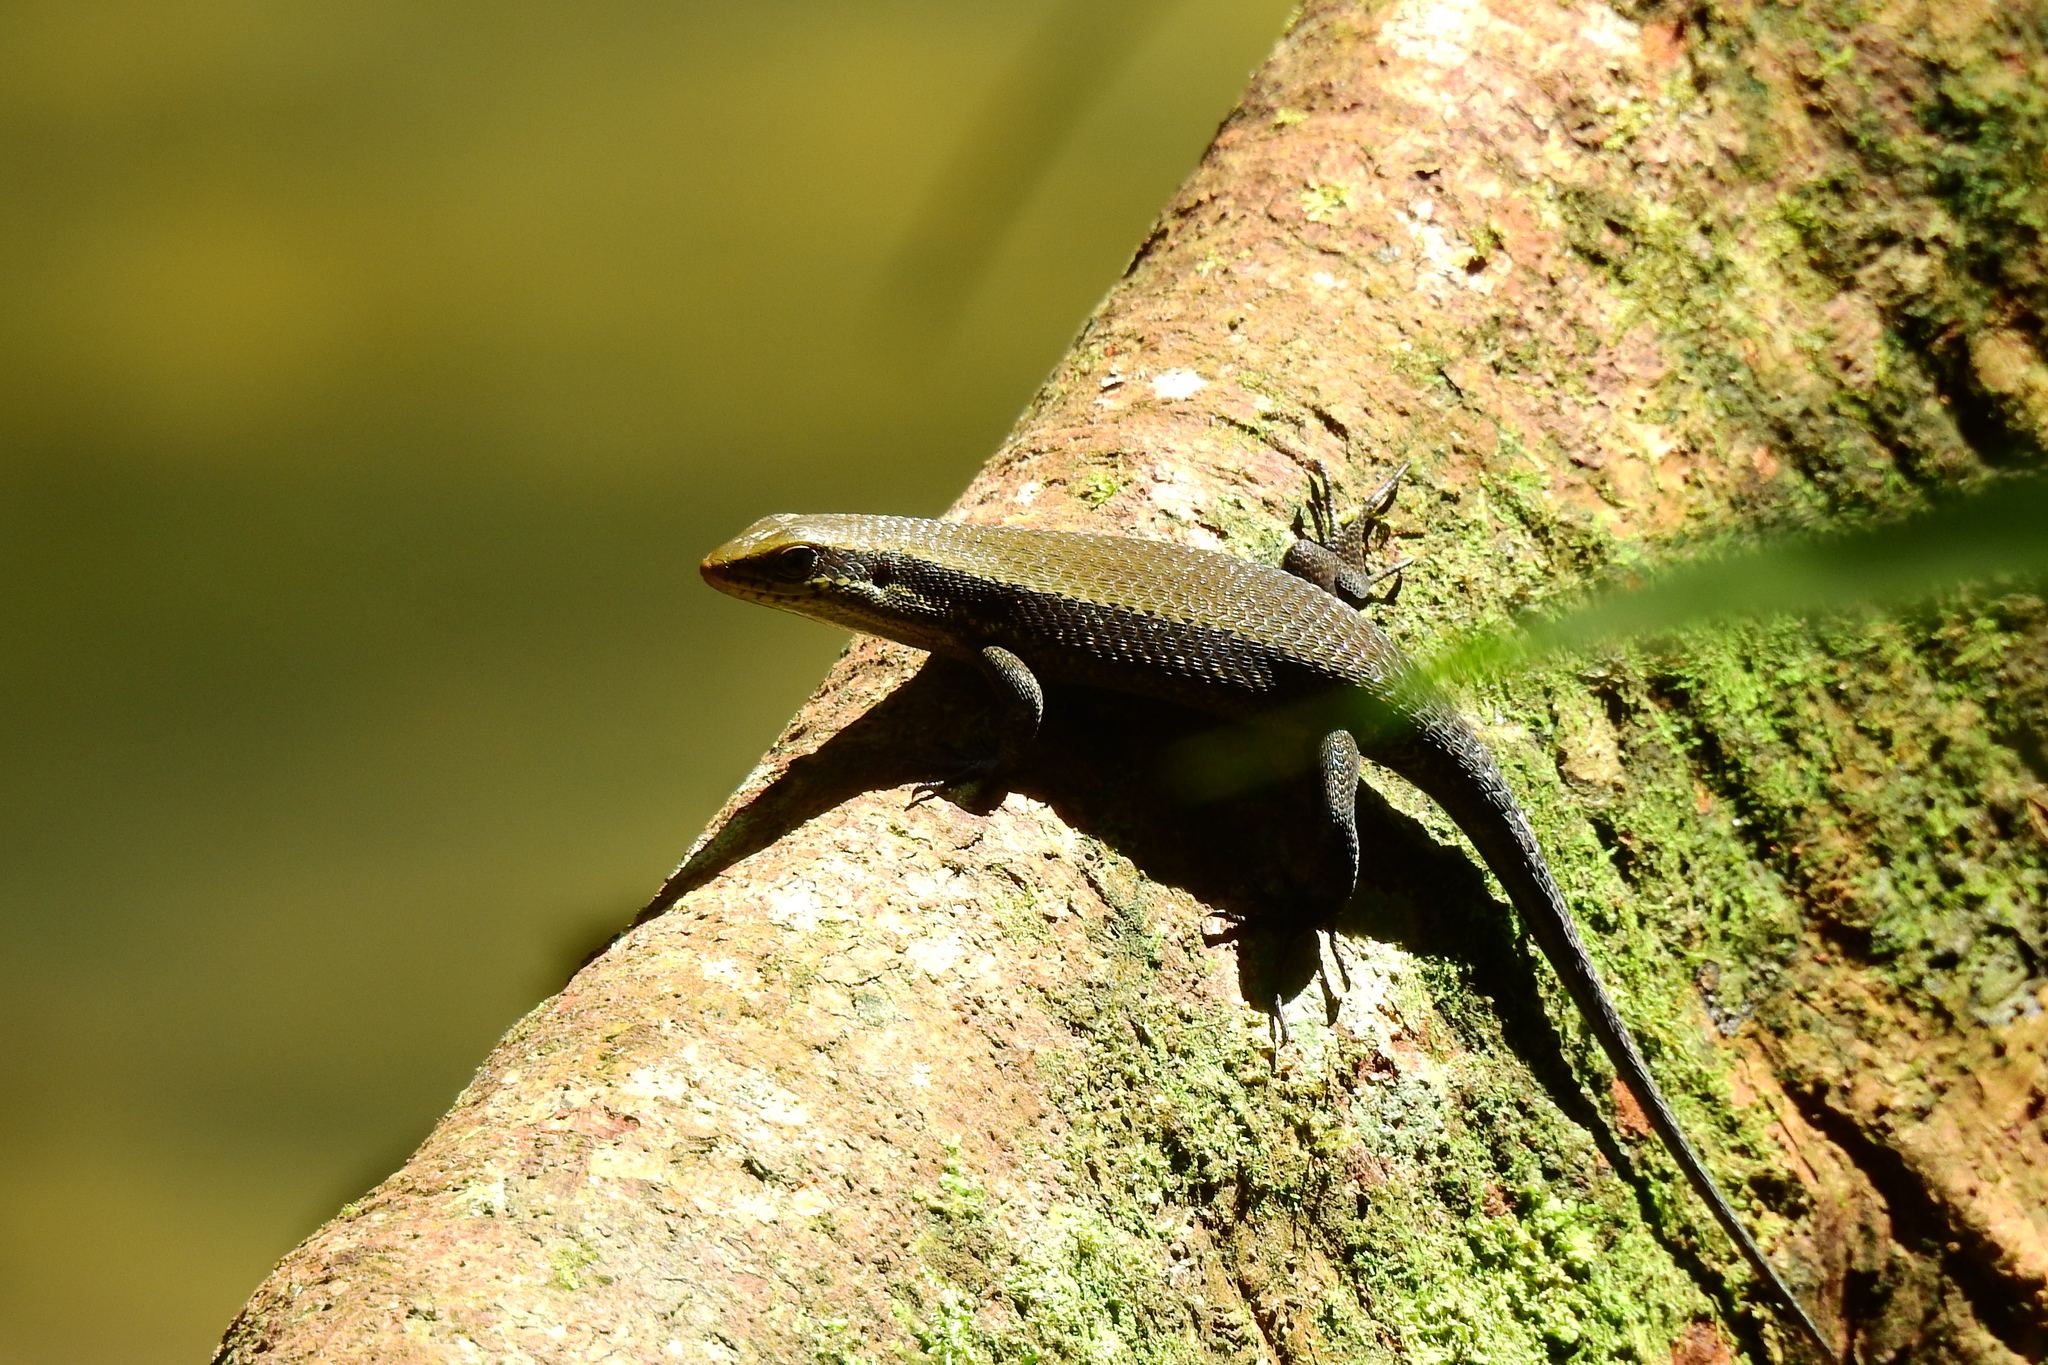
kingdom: Animalia
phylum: Chordata
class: Squamata
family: Scincidae
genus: Eutropis
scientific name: Eutropis rudis
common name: Rough mabuya
